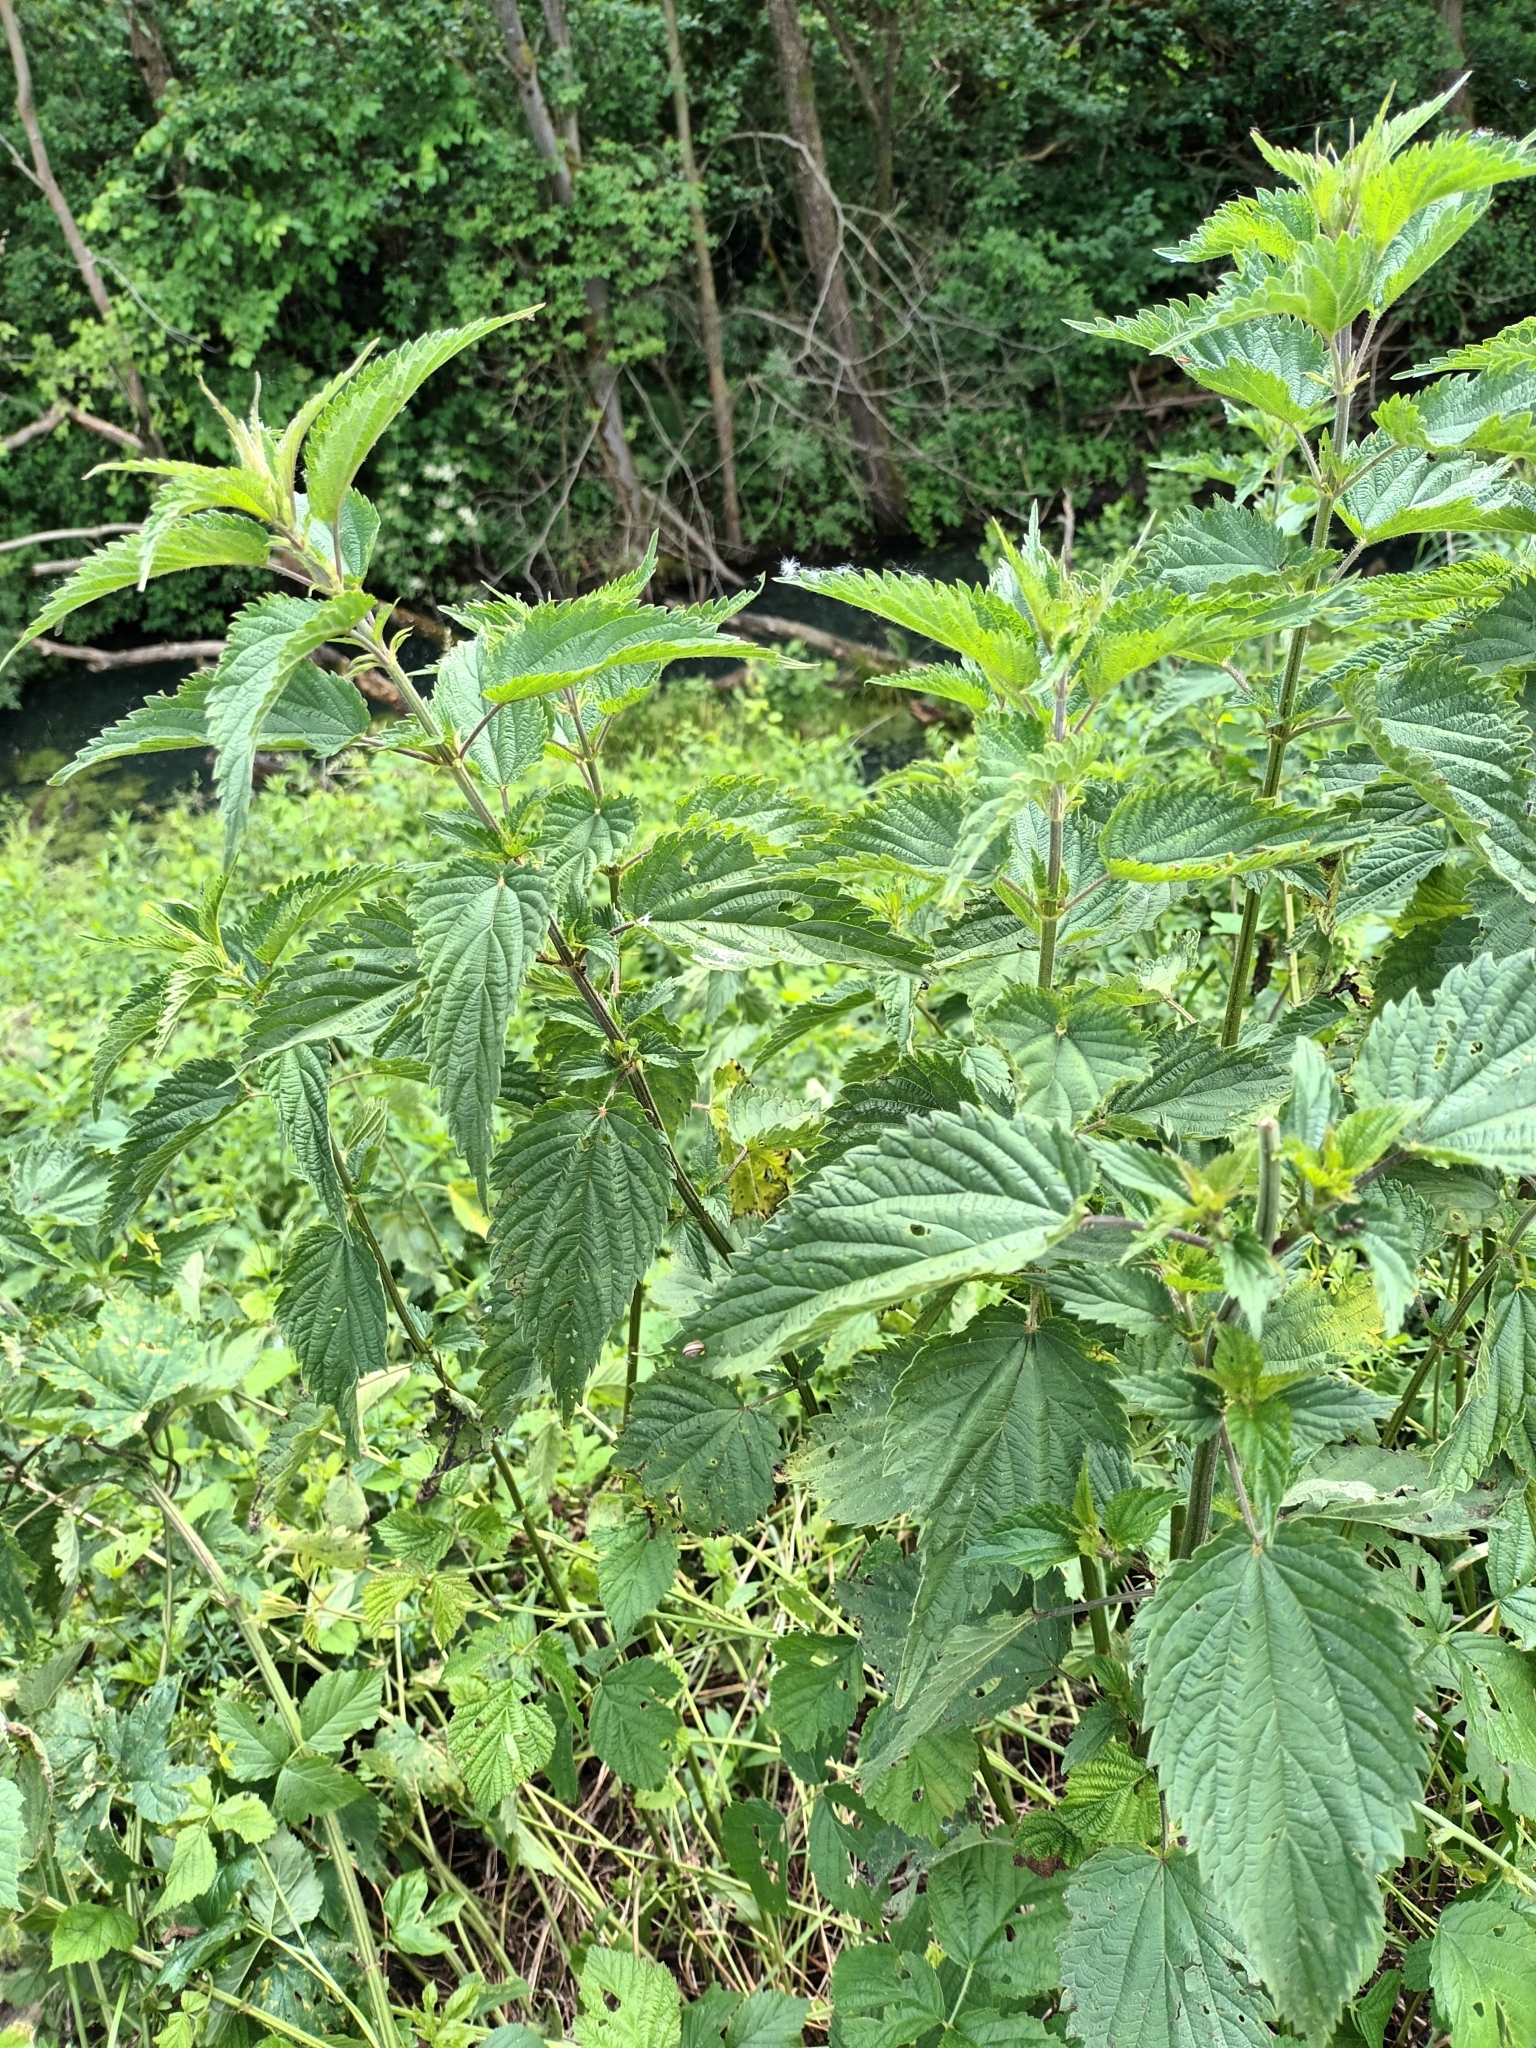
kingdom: Plantae
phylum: Tracheophyta
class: Magnoliopsida
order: Rosales
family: Urticaceae
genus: Urtica
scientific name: Urtica dioica
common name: Common nettle
